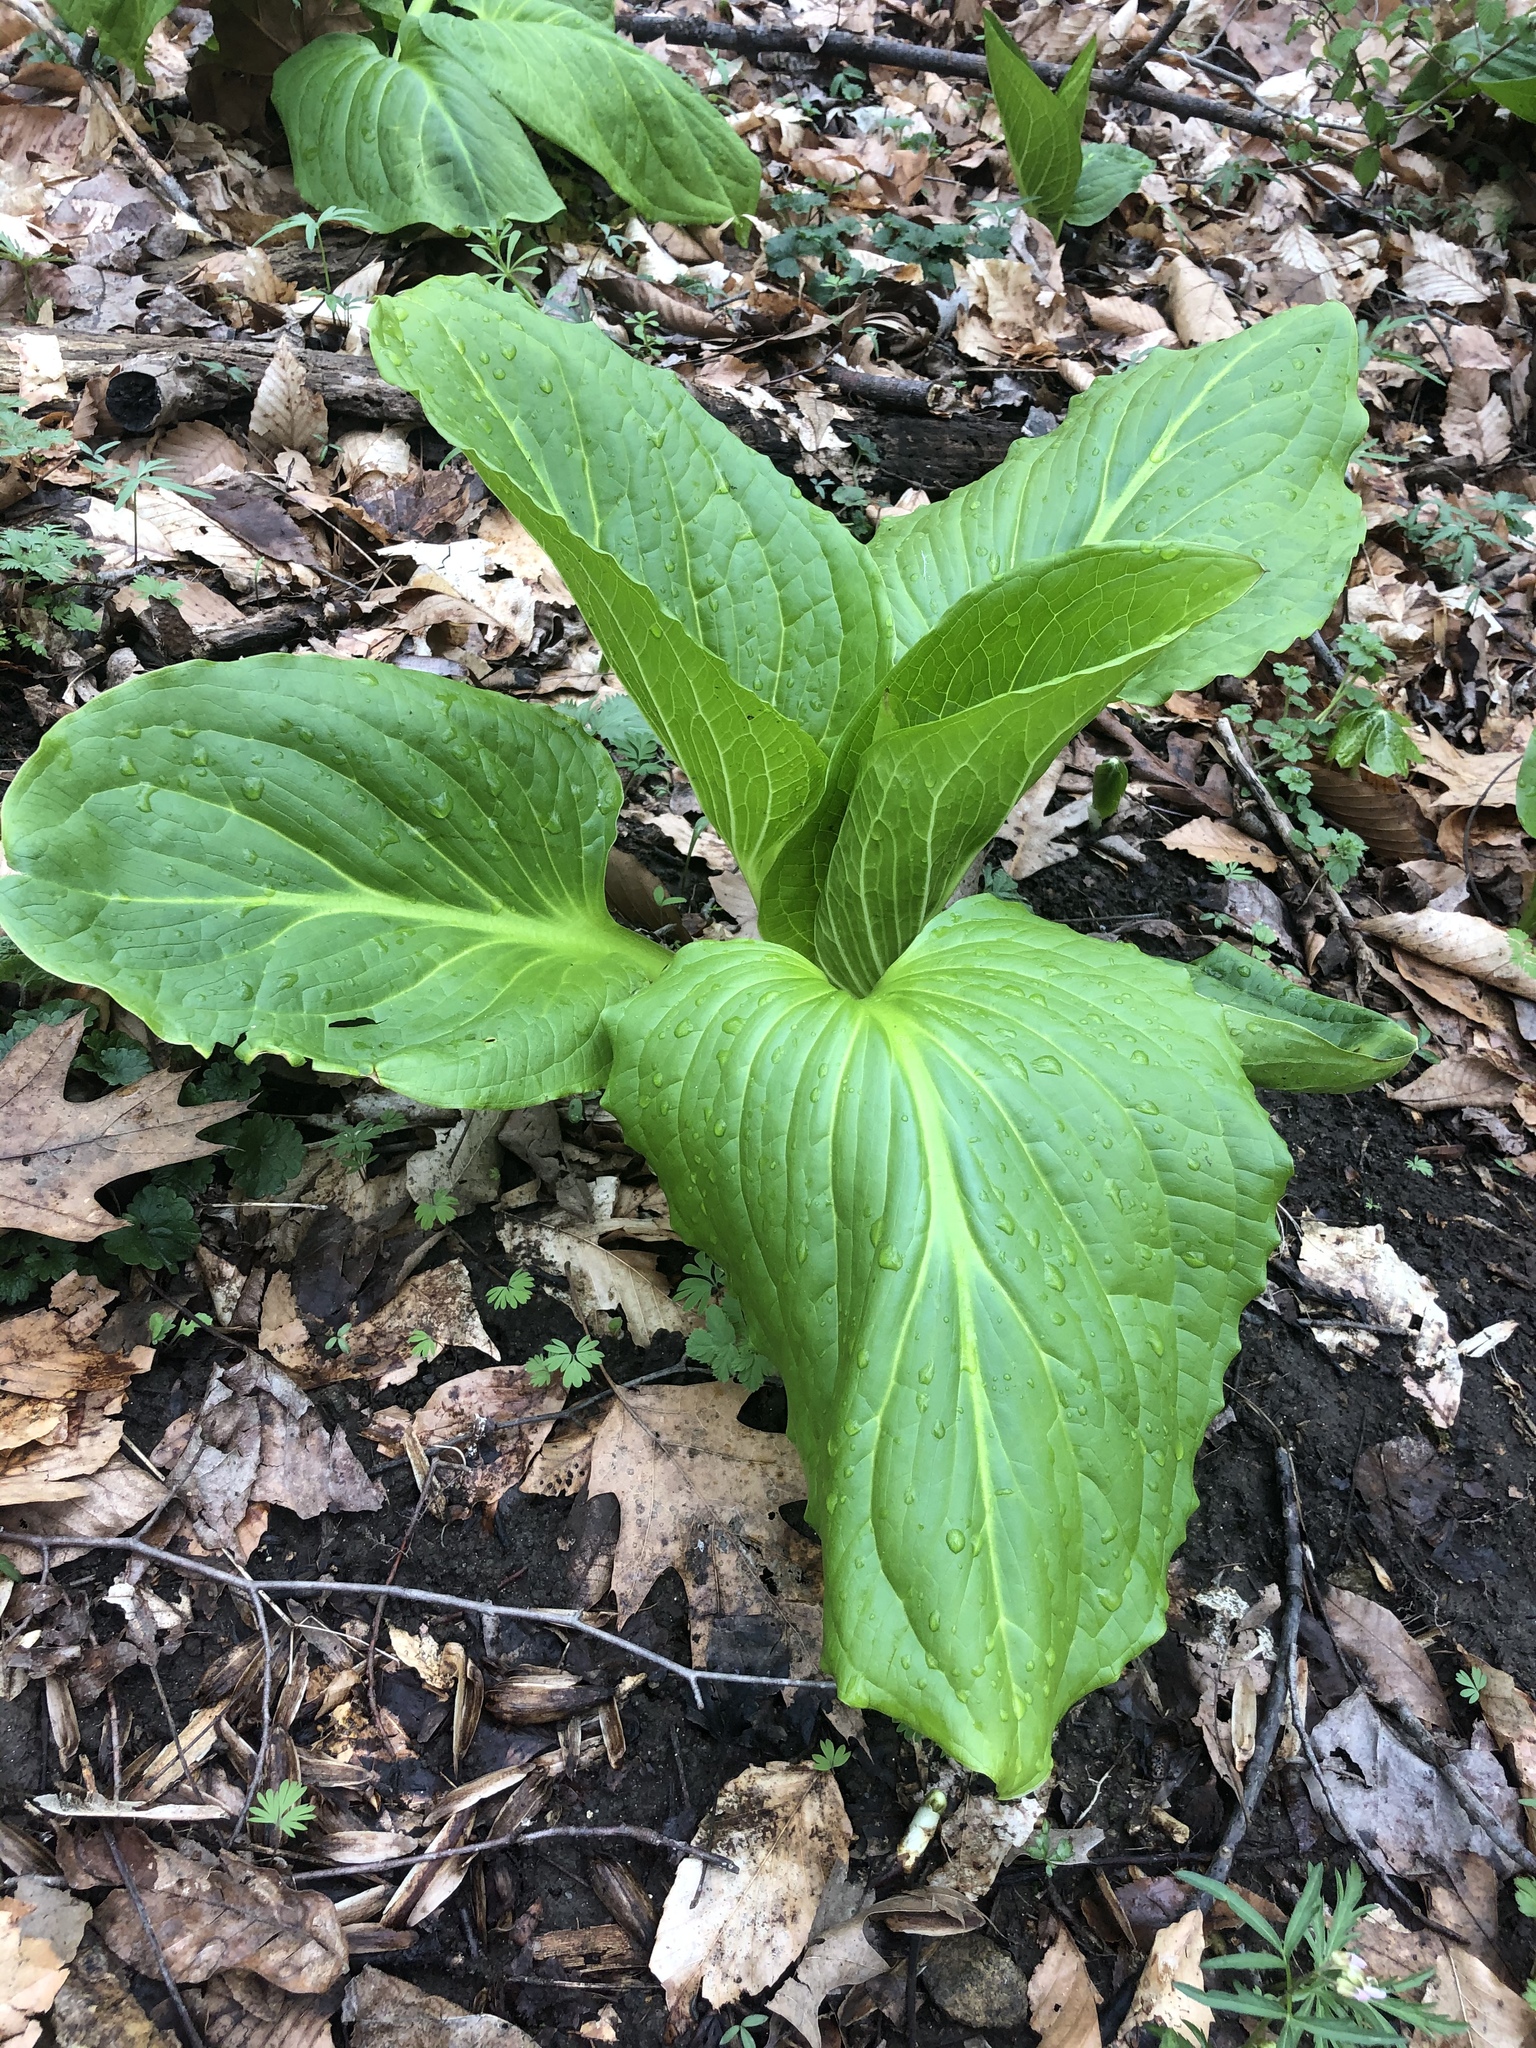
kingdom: Plantae
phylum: Tracheophyta
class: Liliopsida
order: Alismatales
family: Araceae
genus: Symplocarpus
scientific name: Symplocarpus foetidus
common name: Eastern skunk cabbage
